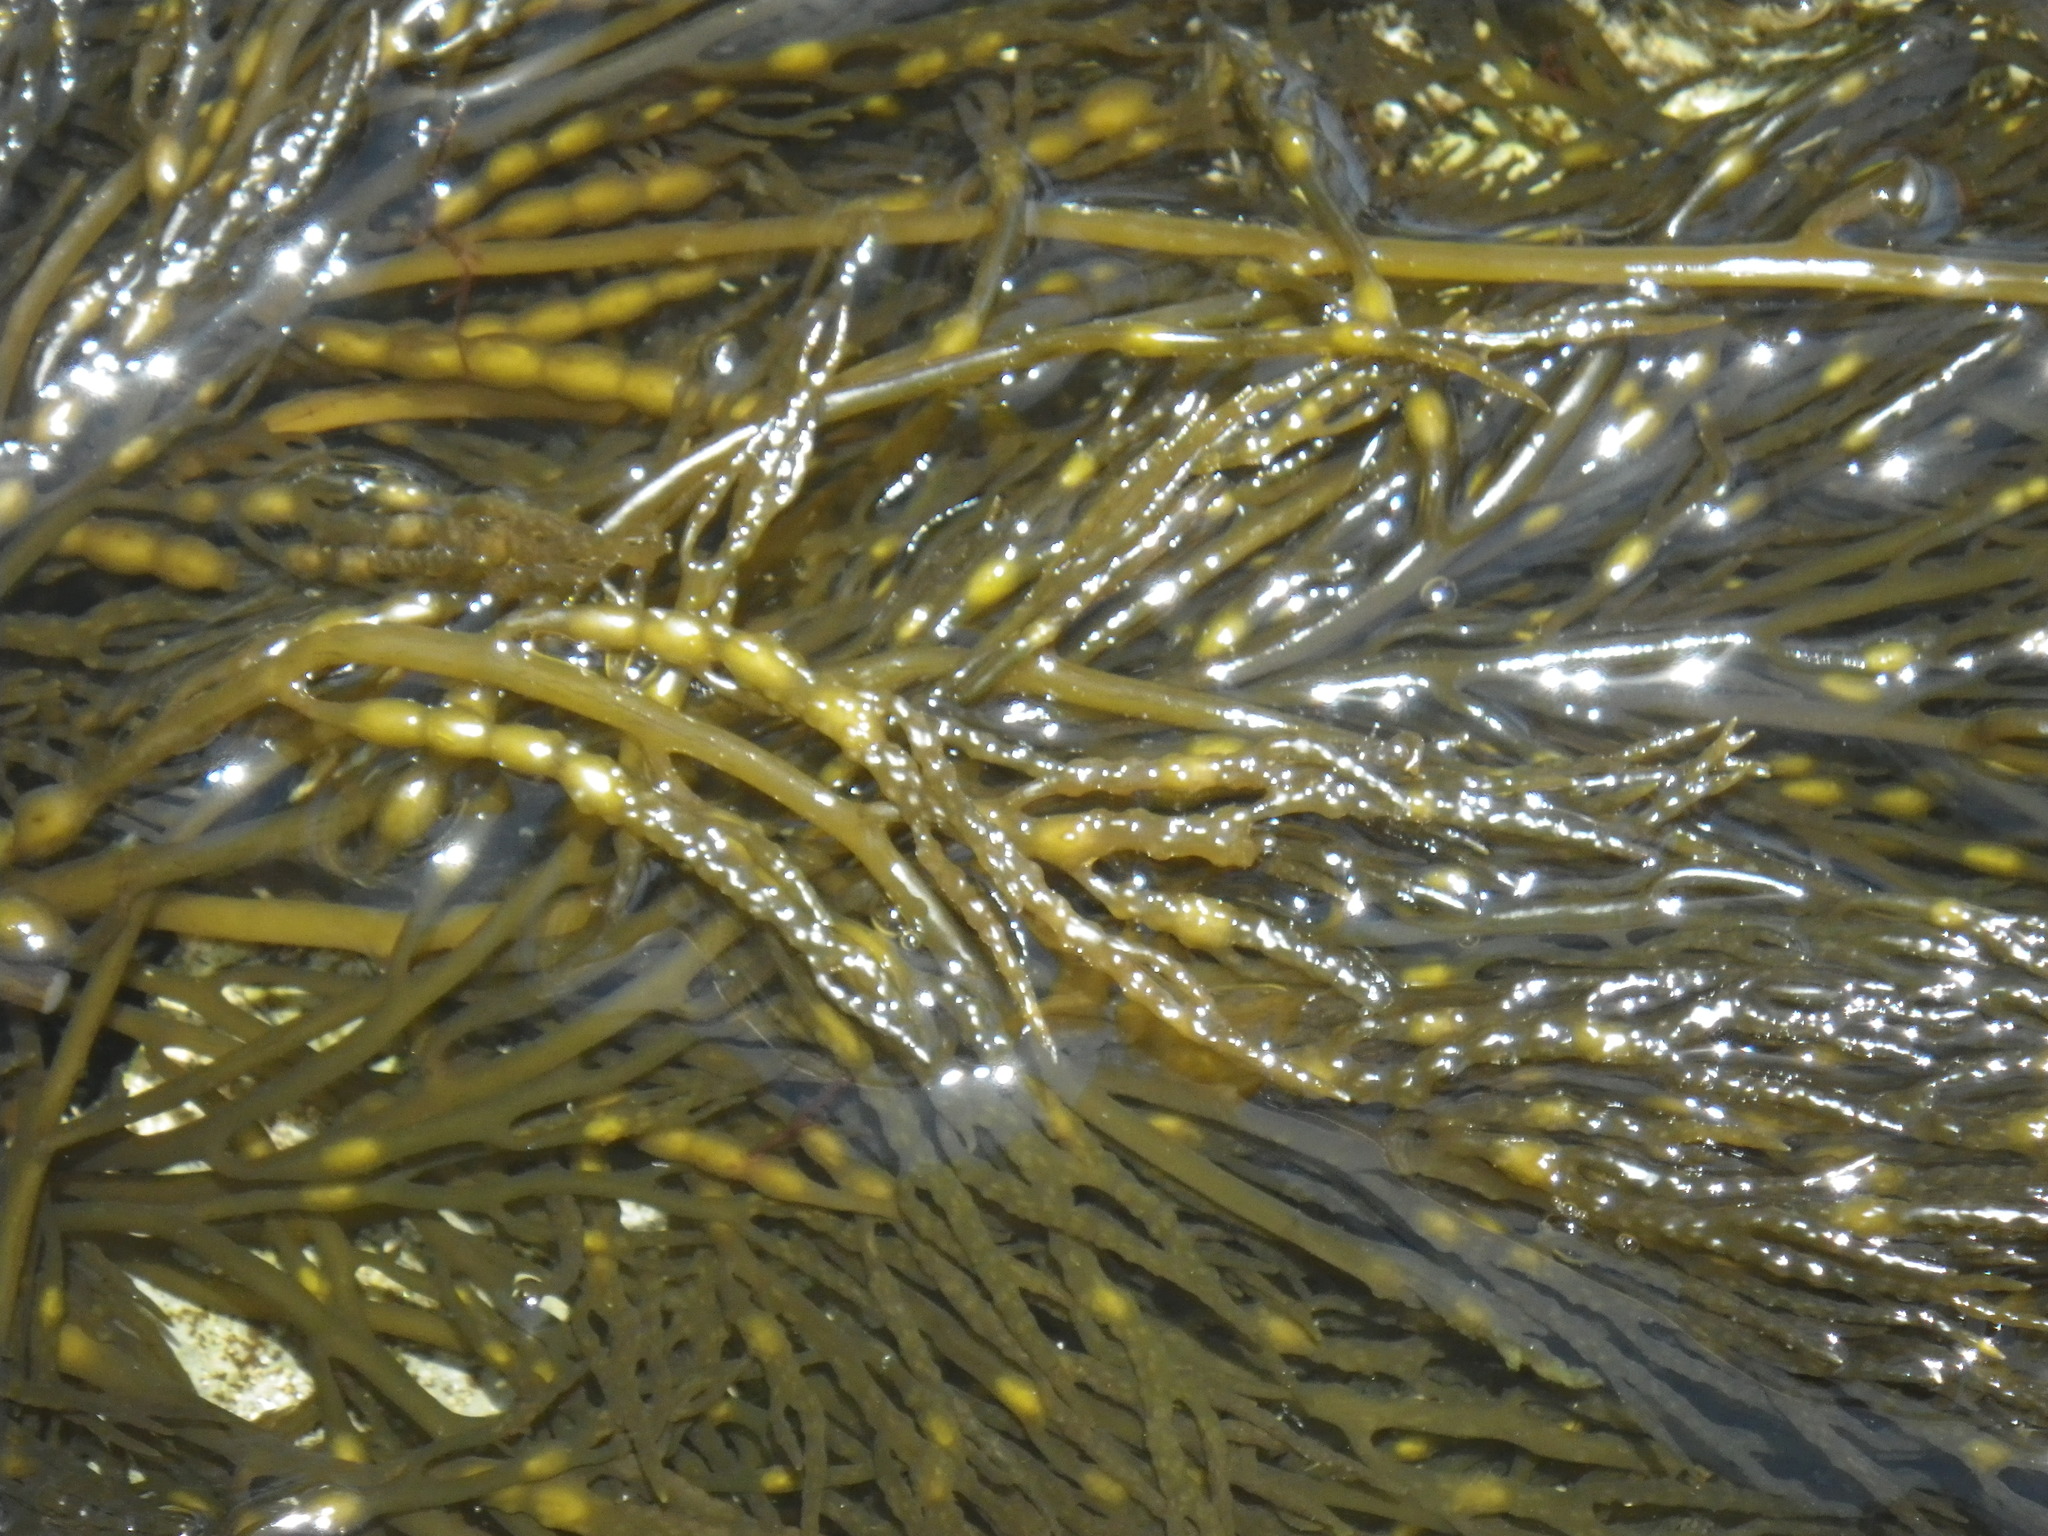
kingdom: Chromista
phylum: Ochrophyta
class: Phaeophyceae
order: Fucales
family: Sargassaceae
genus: Stephanocystis
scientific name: Stephanocystis
